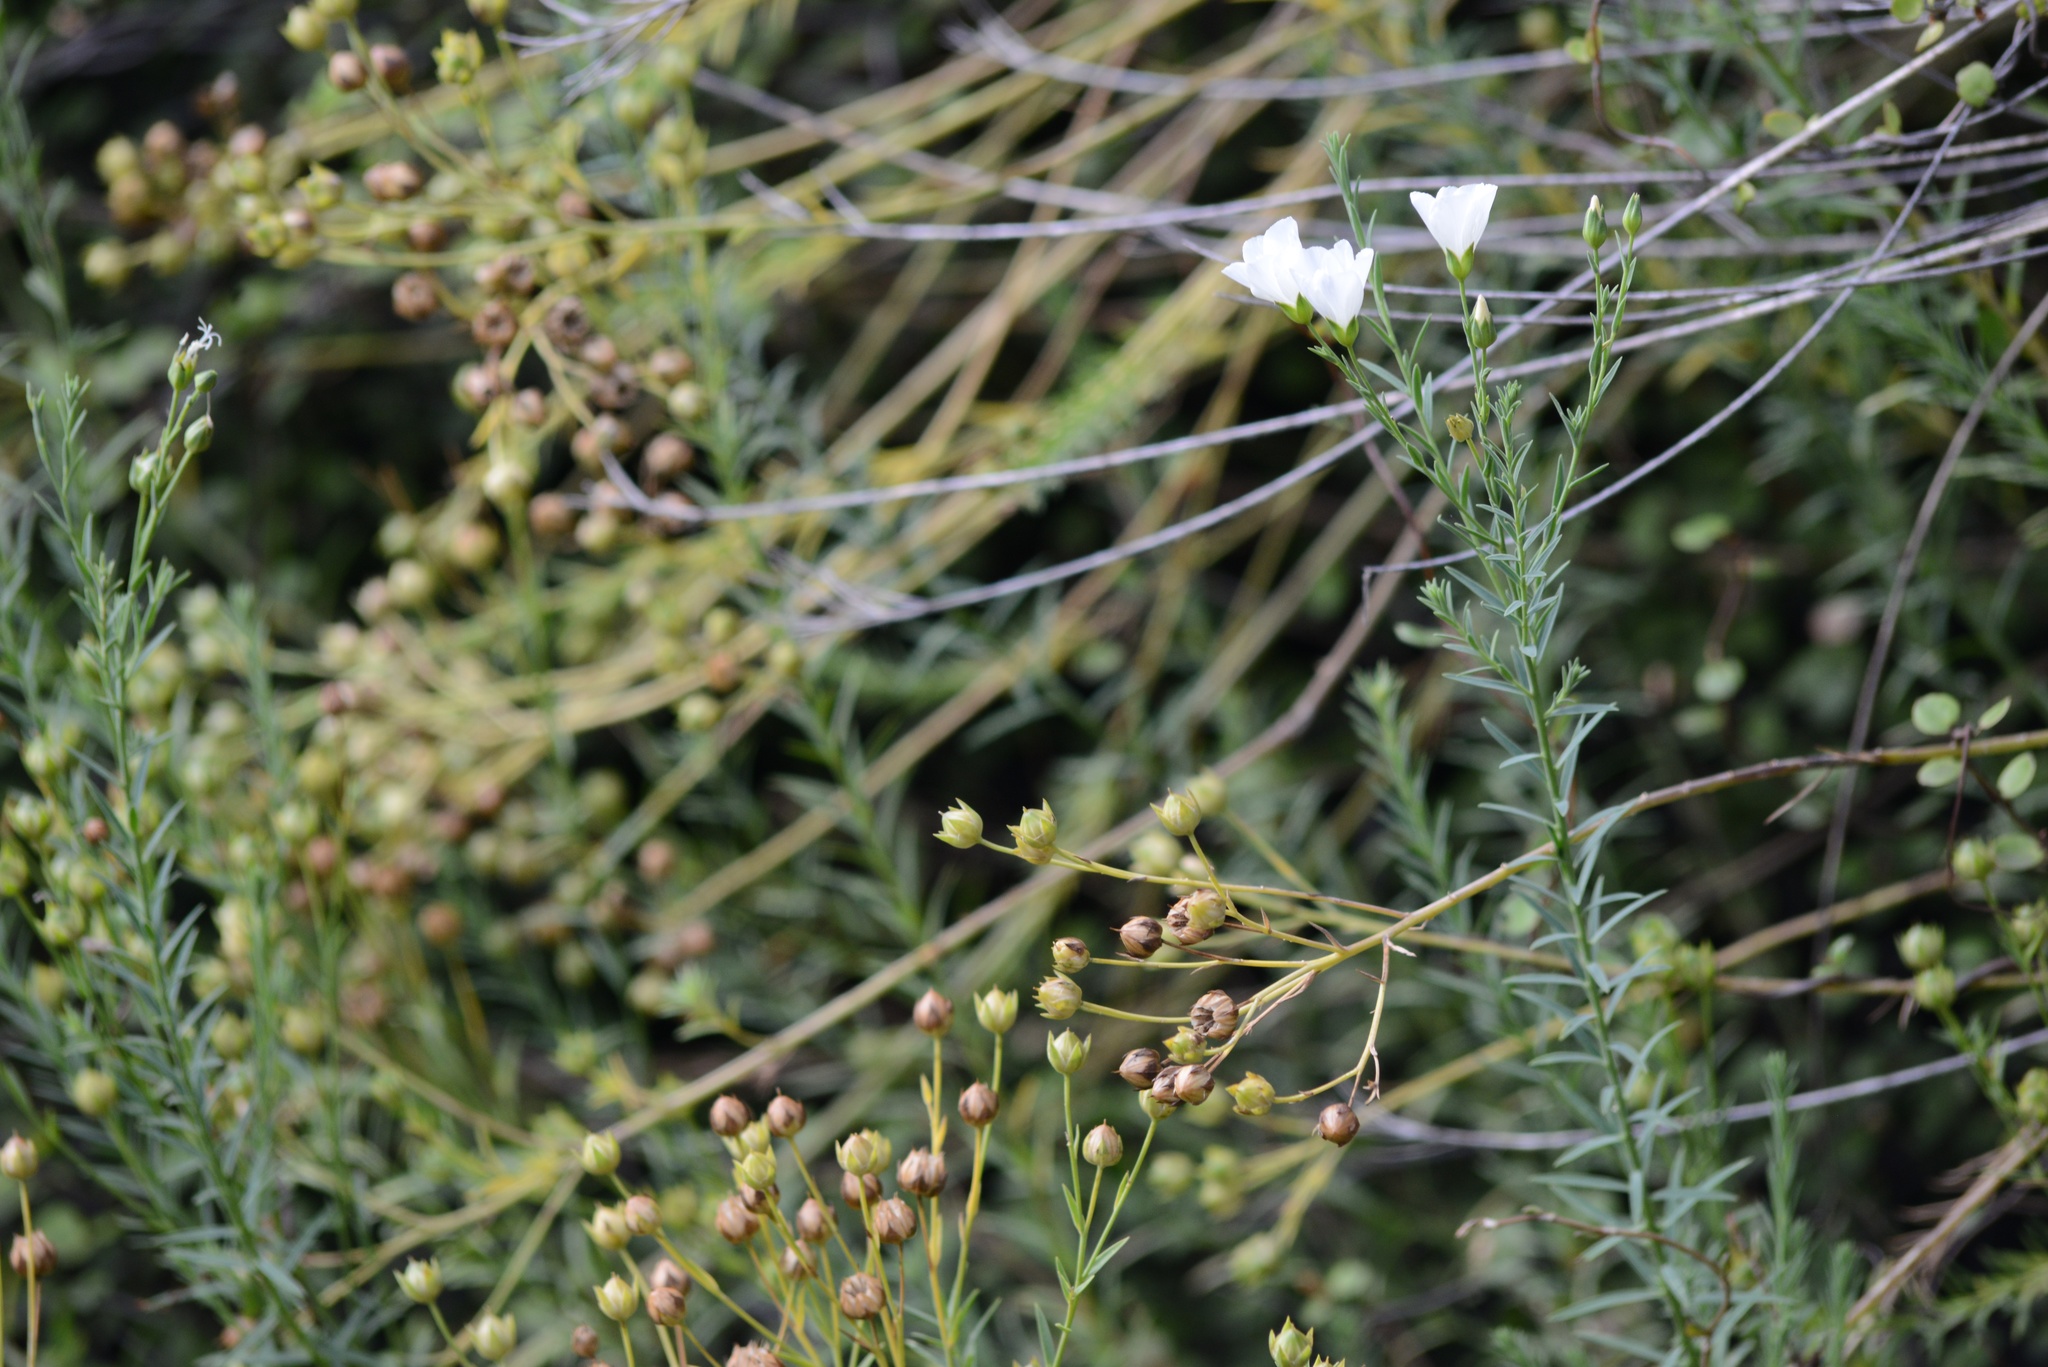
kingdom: Plantae
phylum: Tracheophyta
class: Magnoliopsida
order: Malpighiales
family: Linaceae
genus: Linum
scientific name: Linum monogynum
